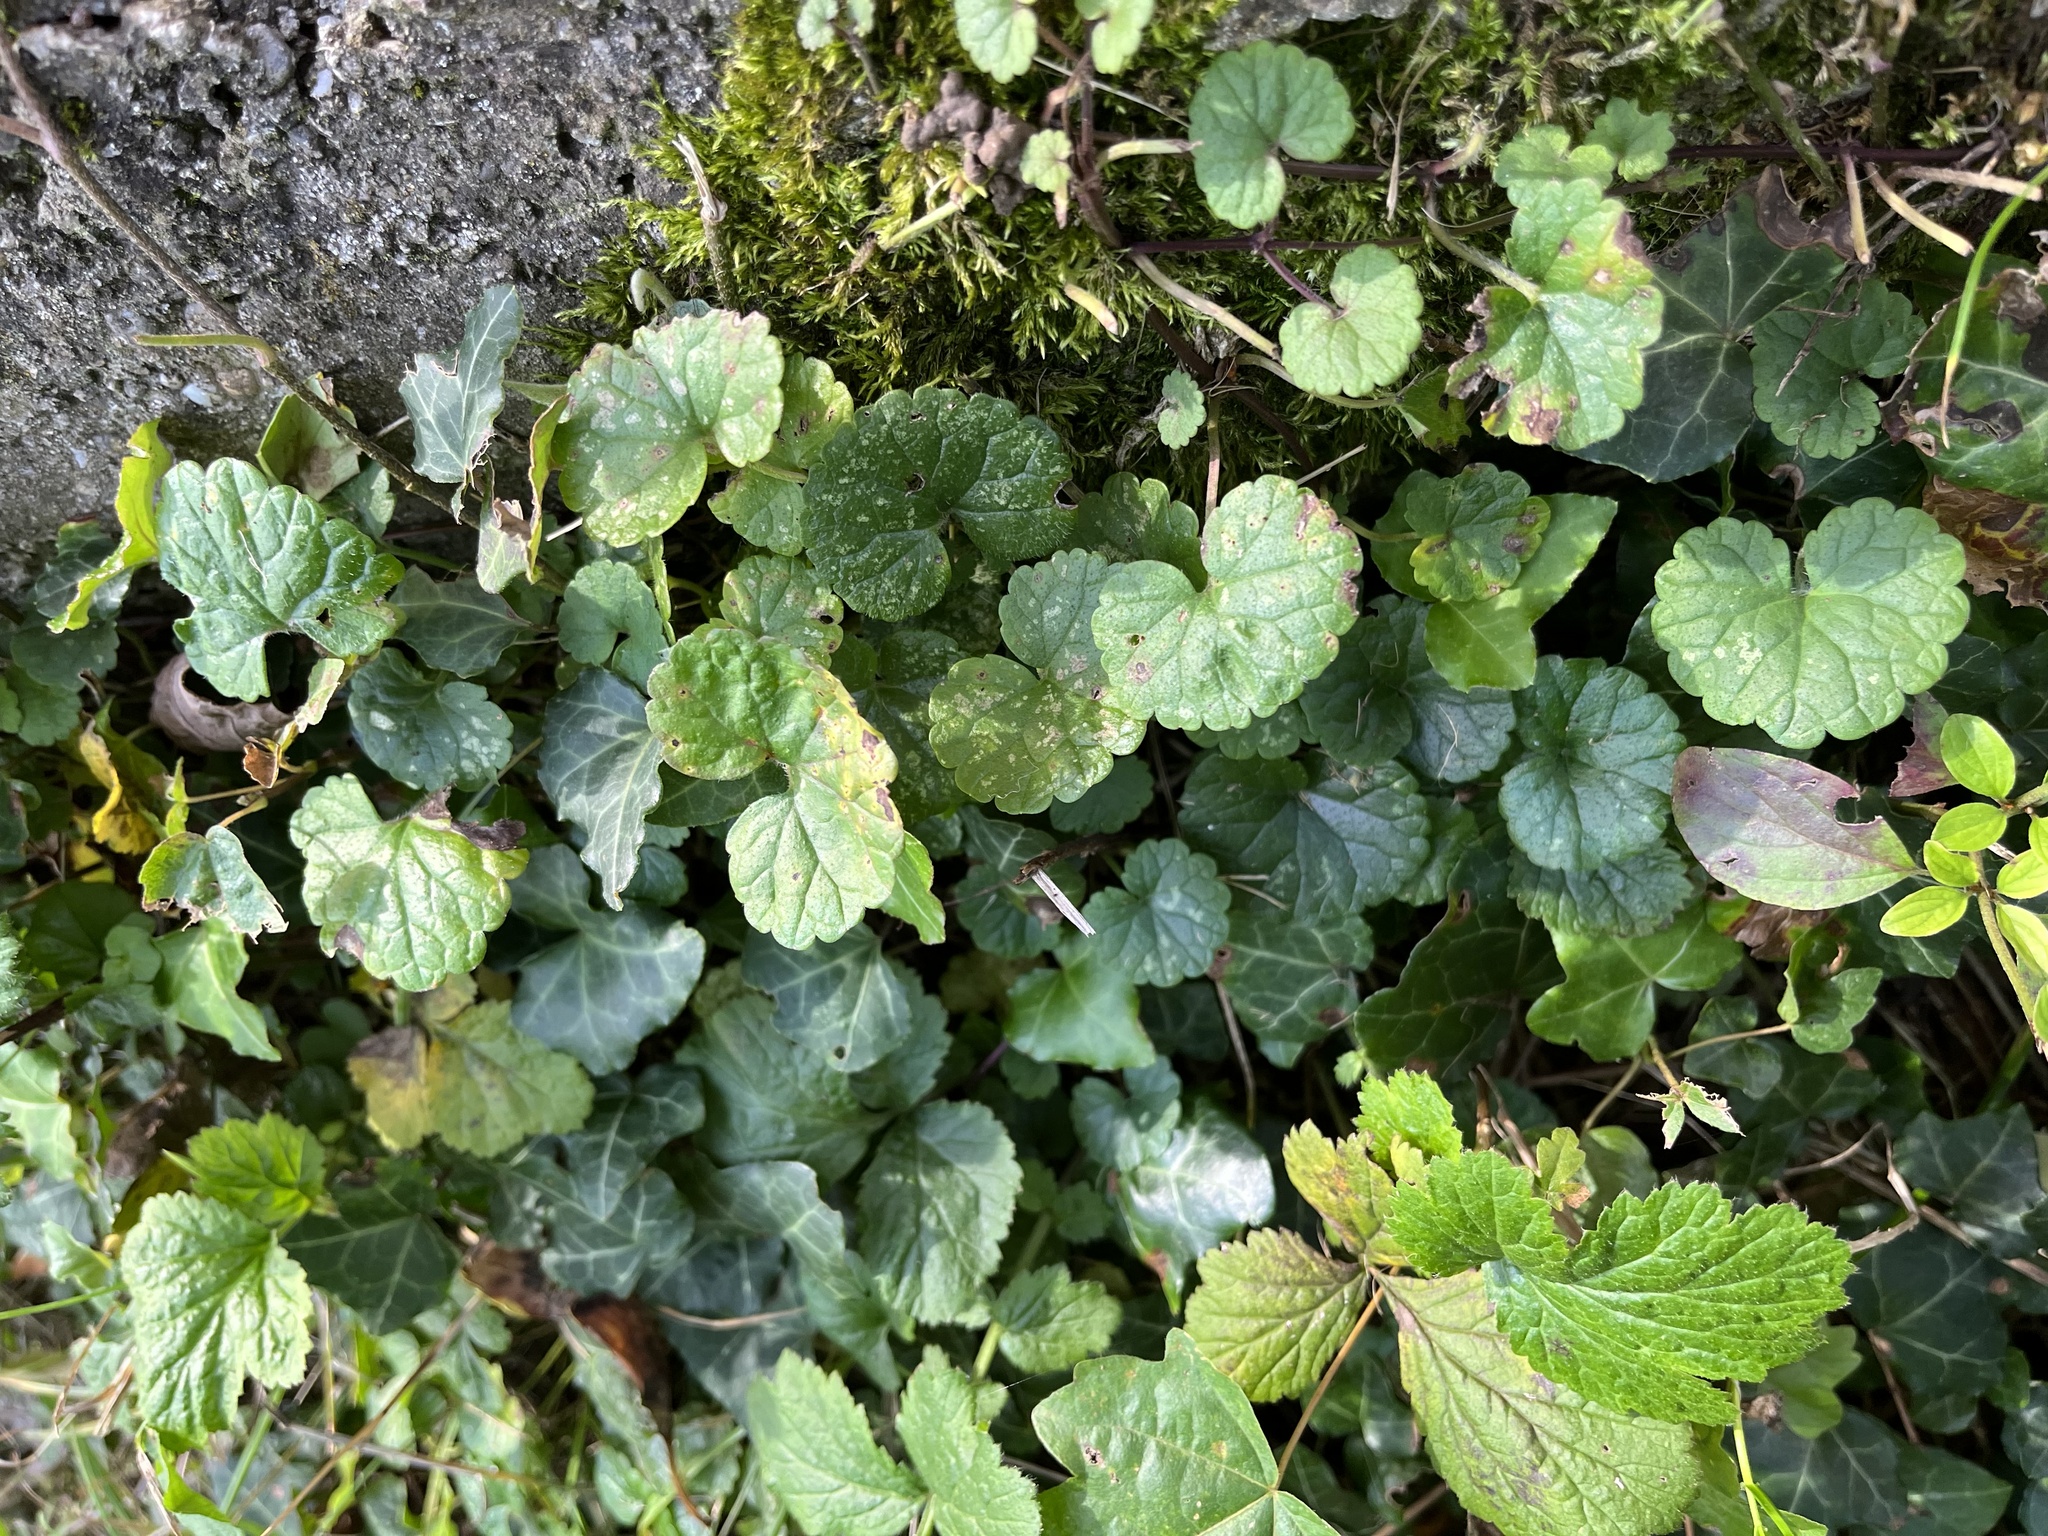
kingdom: Plantae
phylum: Tracheophyta
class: Magnoliopsida
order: Lamiales
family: Lamiaceae
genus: Glechoma
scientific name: Glechoma hederacea
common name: Ground ivy
